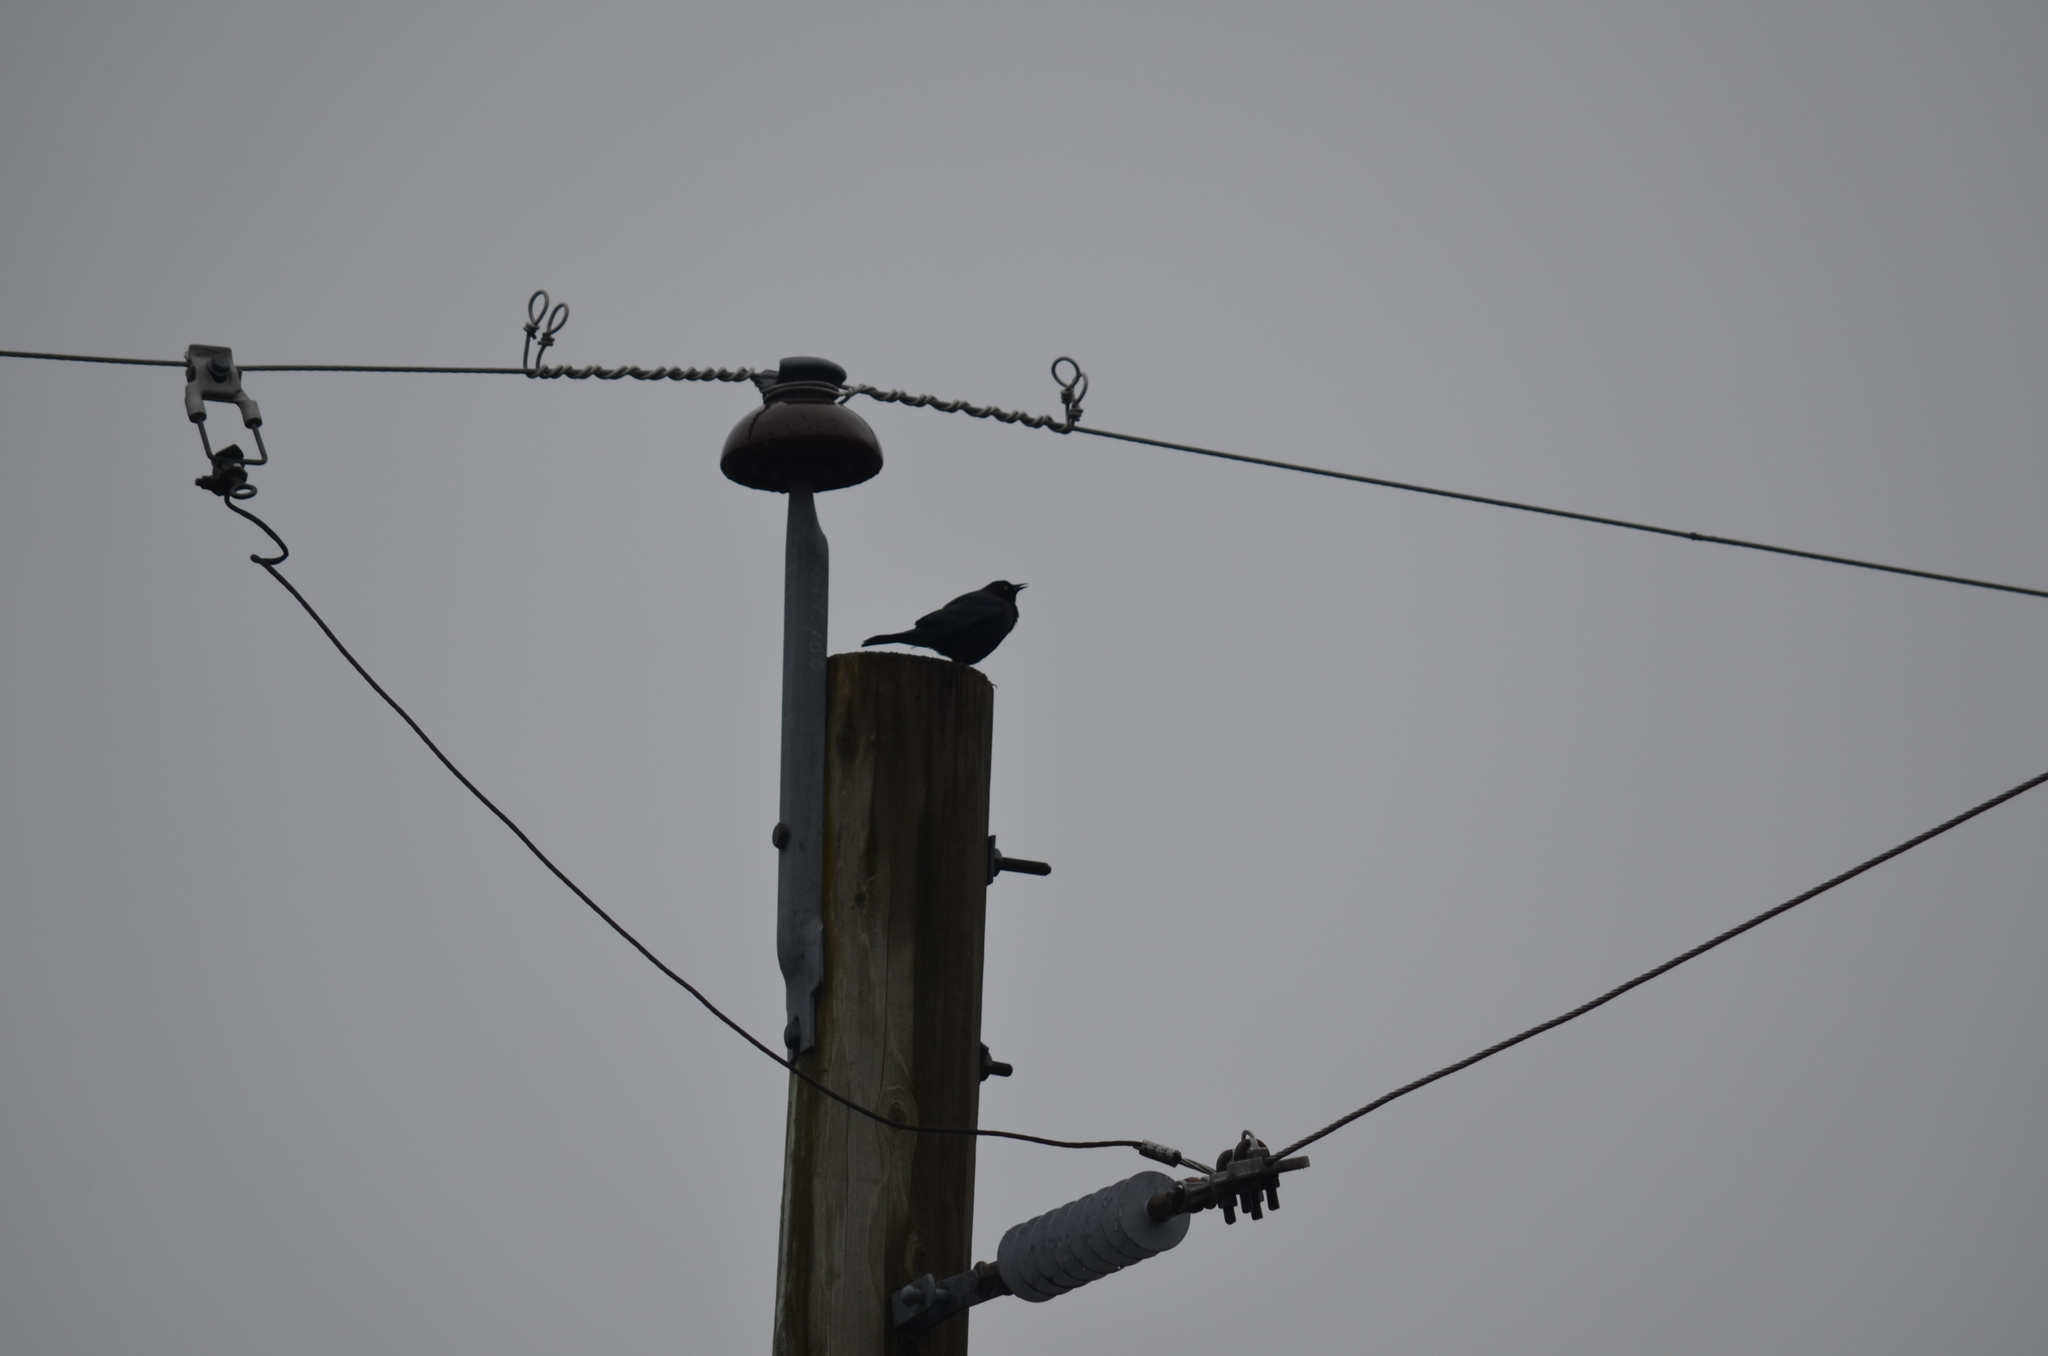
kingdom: Animalia
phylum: Chordata
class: Aves
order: Passeriformes
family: Icteridae
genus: Euphagus
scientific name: Euphagus cyanocephalus
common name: Brewer's blackbird
